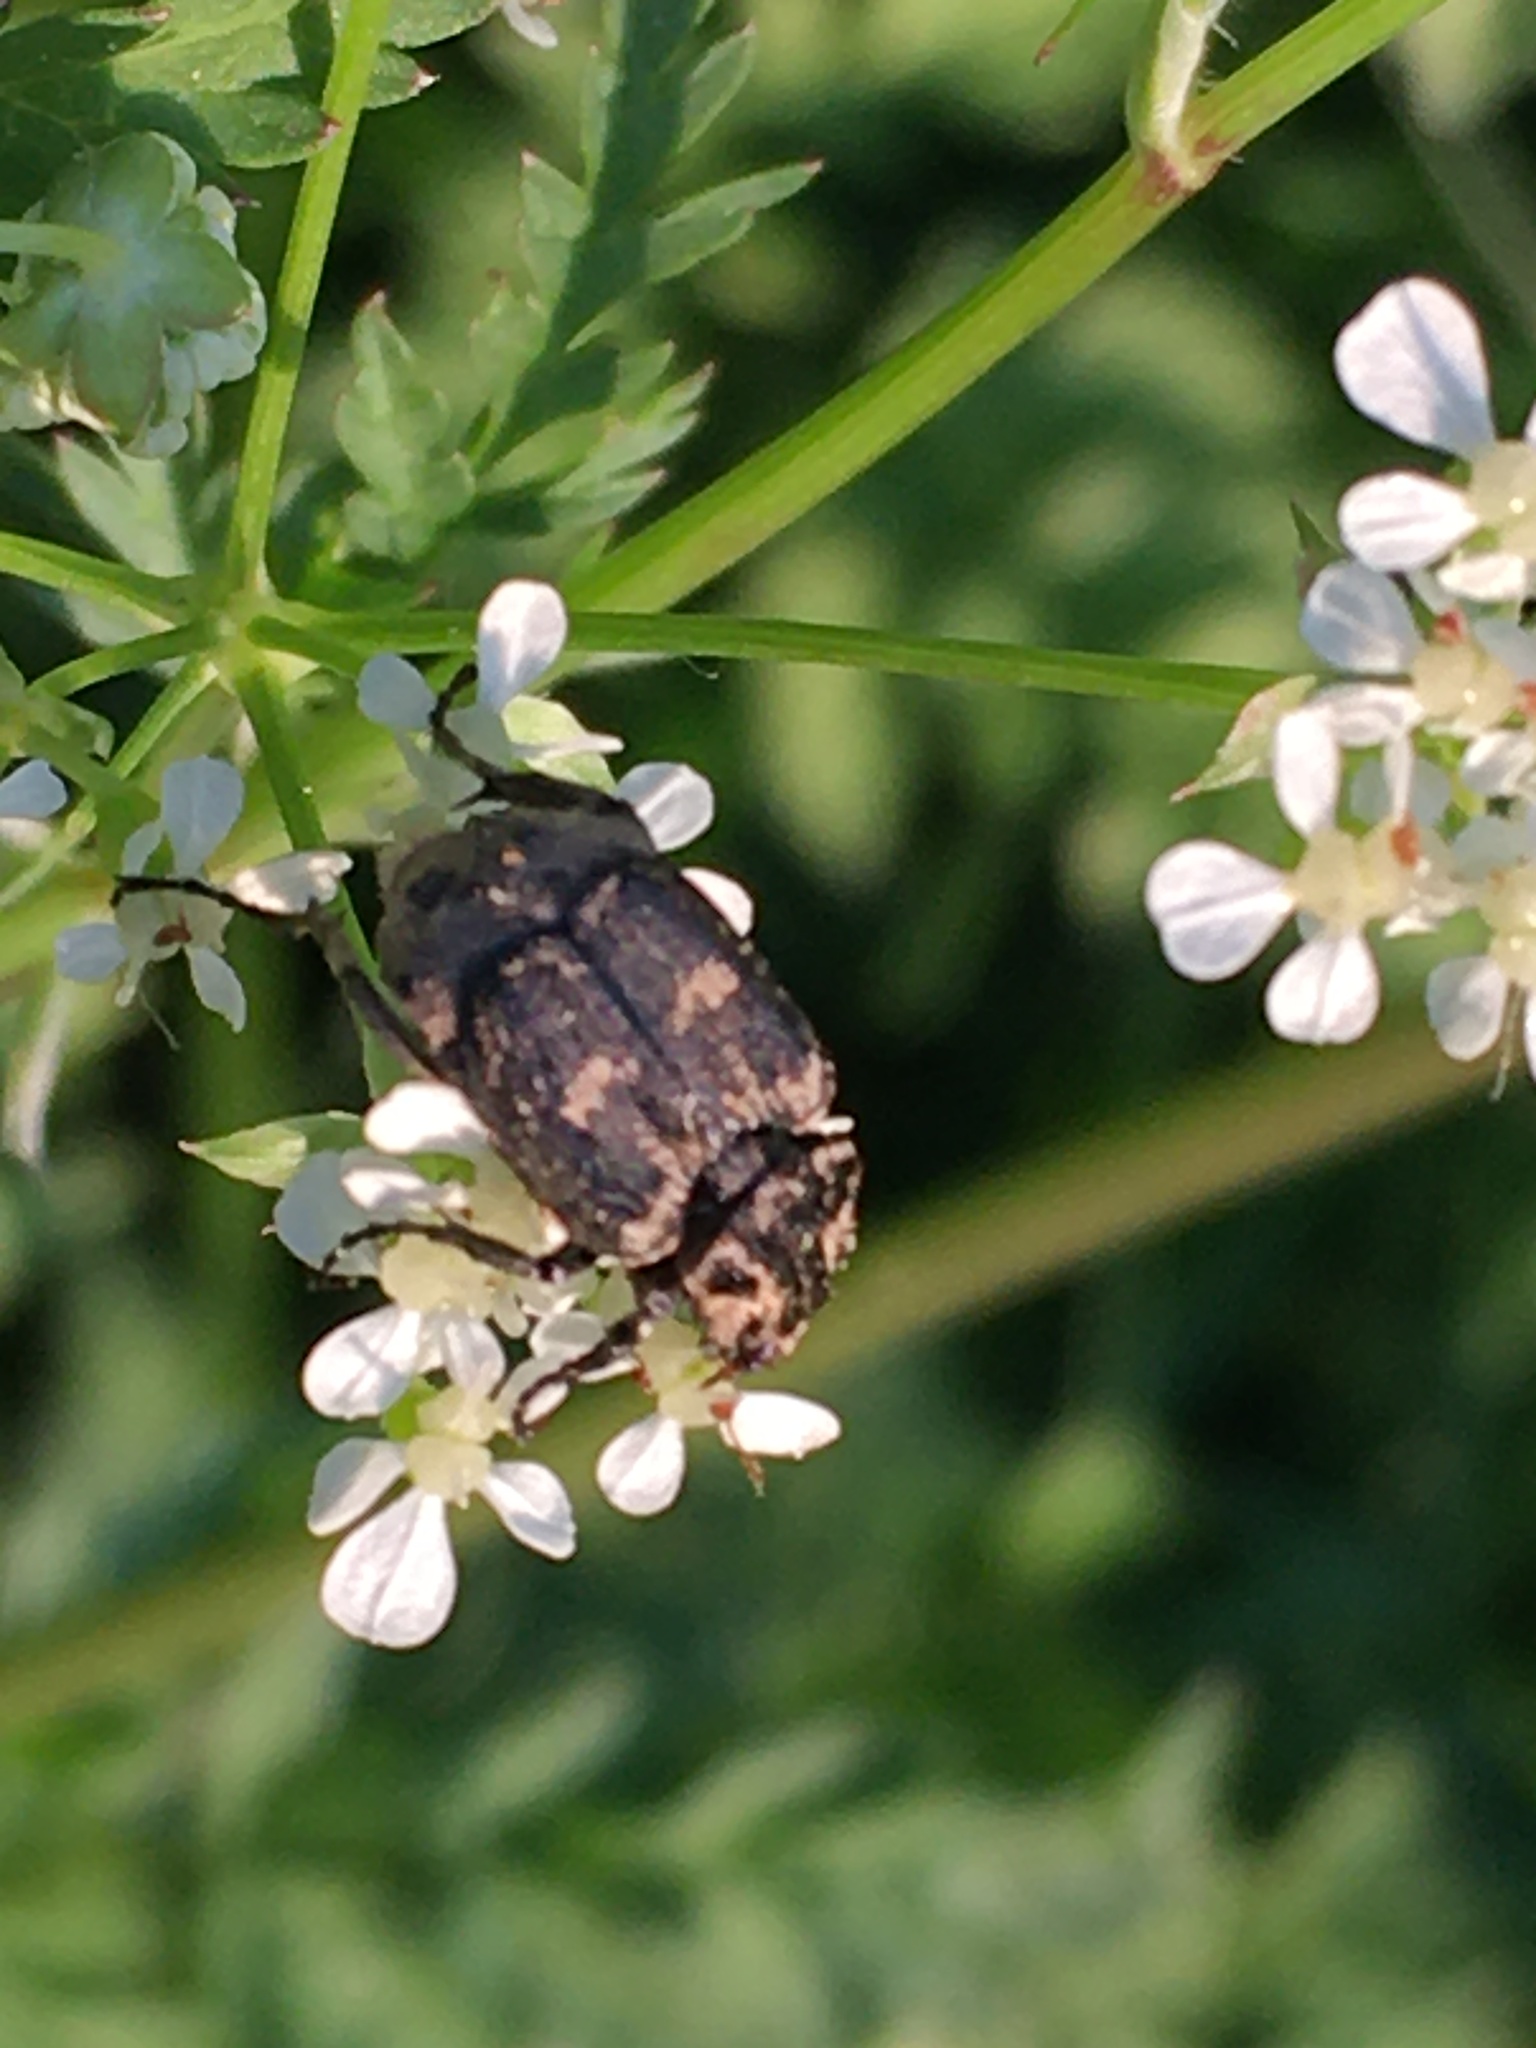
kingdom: Animalia
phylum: Arthropoda
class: Insecta
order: Coleoptera
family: Scarabaeidae
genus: Valgus
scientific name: Valgus hemipterus
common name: Bug flower chafer
